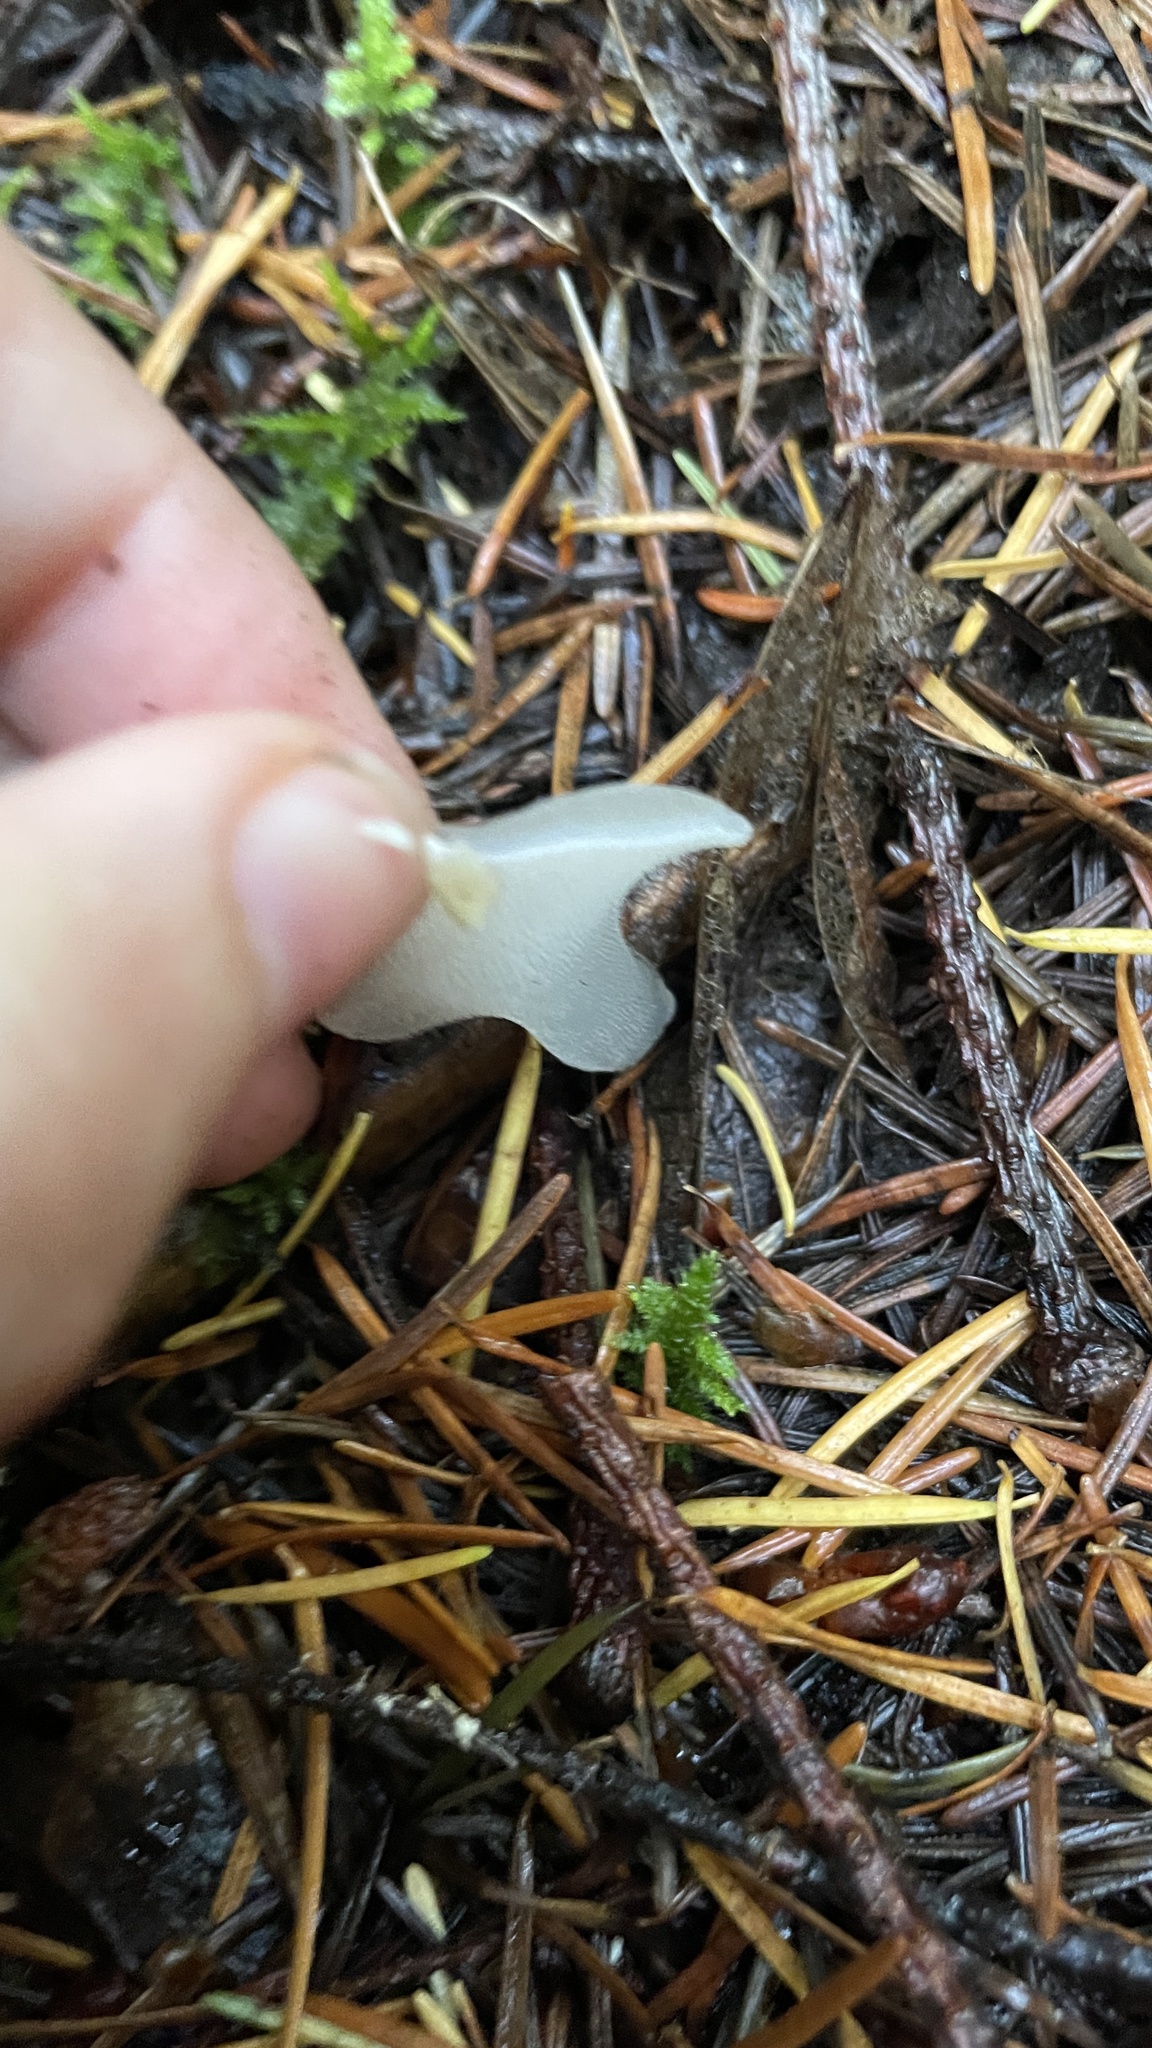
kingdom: Fungi
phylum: Basidiomycota
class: Agaricomycetes
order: Auriculariales
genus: Pseudohydnum
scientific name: Pseudohydnum gelatinosum
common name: Jelly tongue
